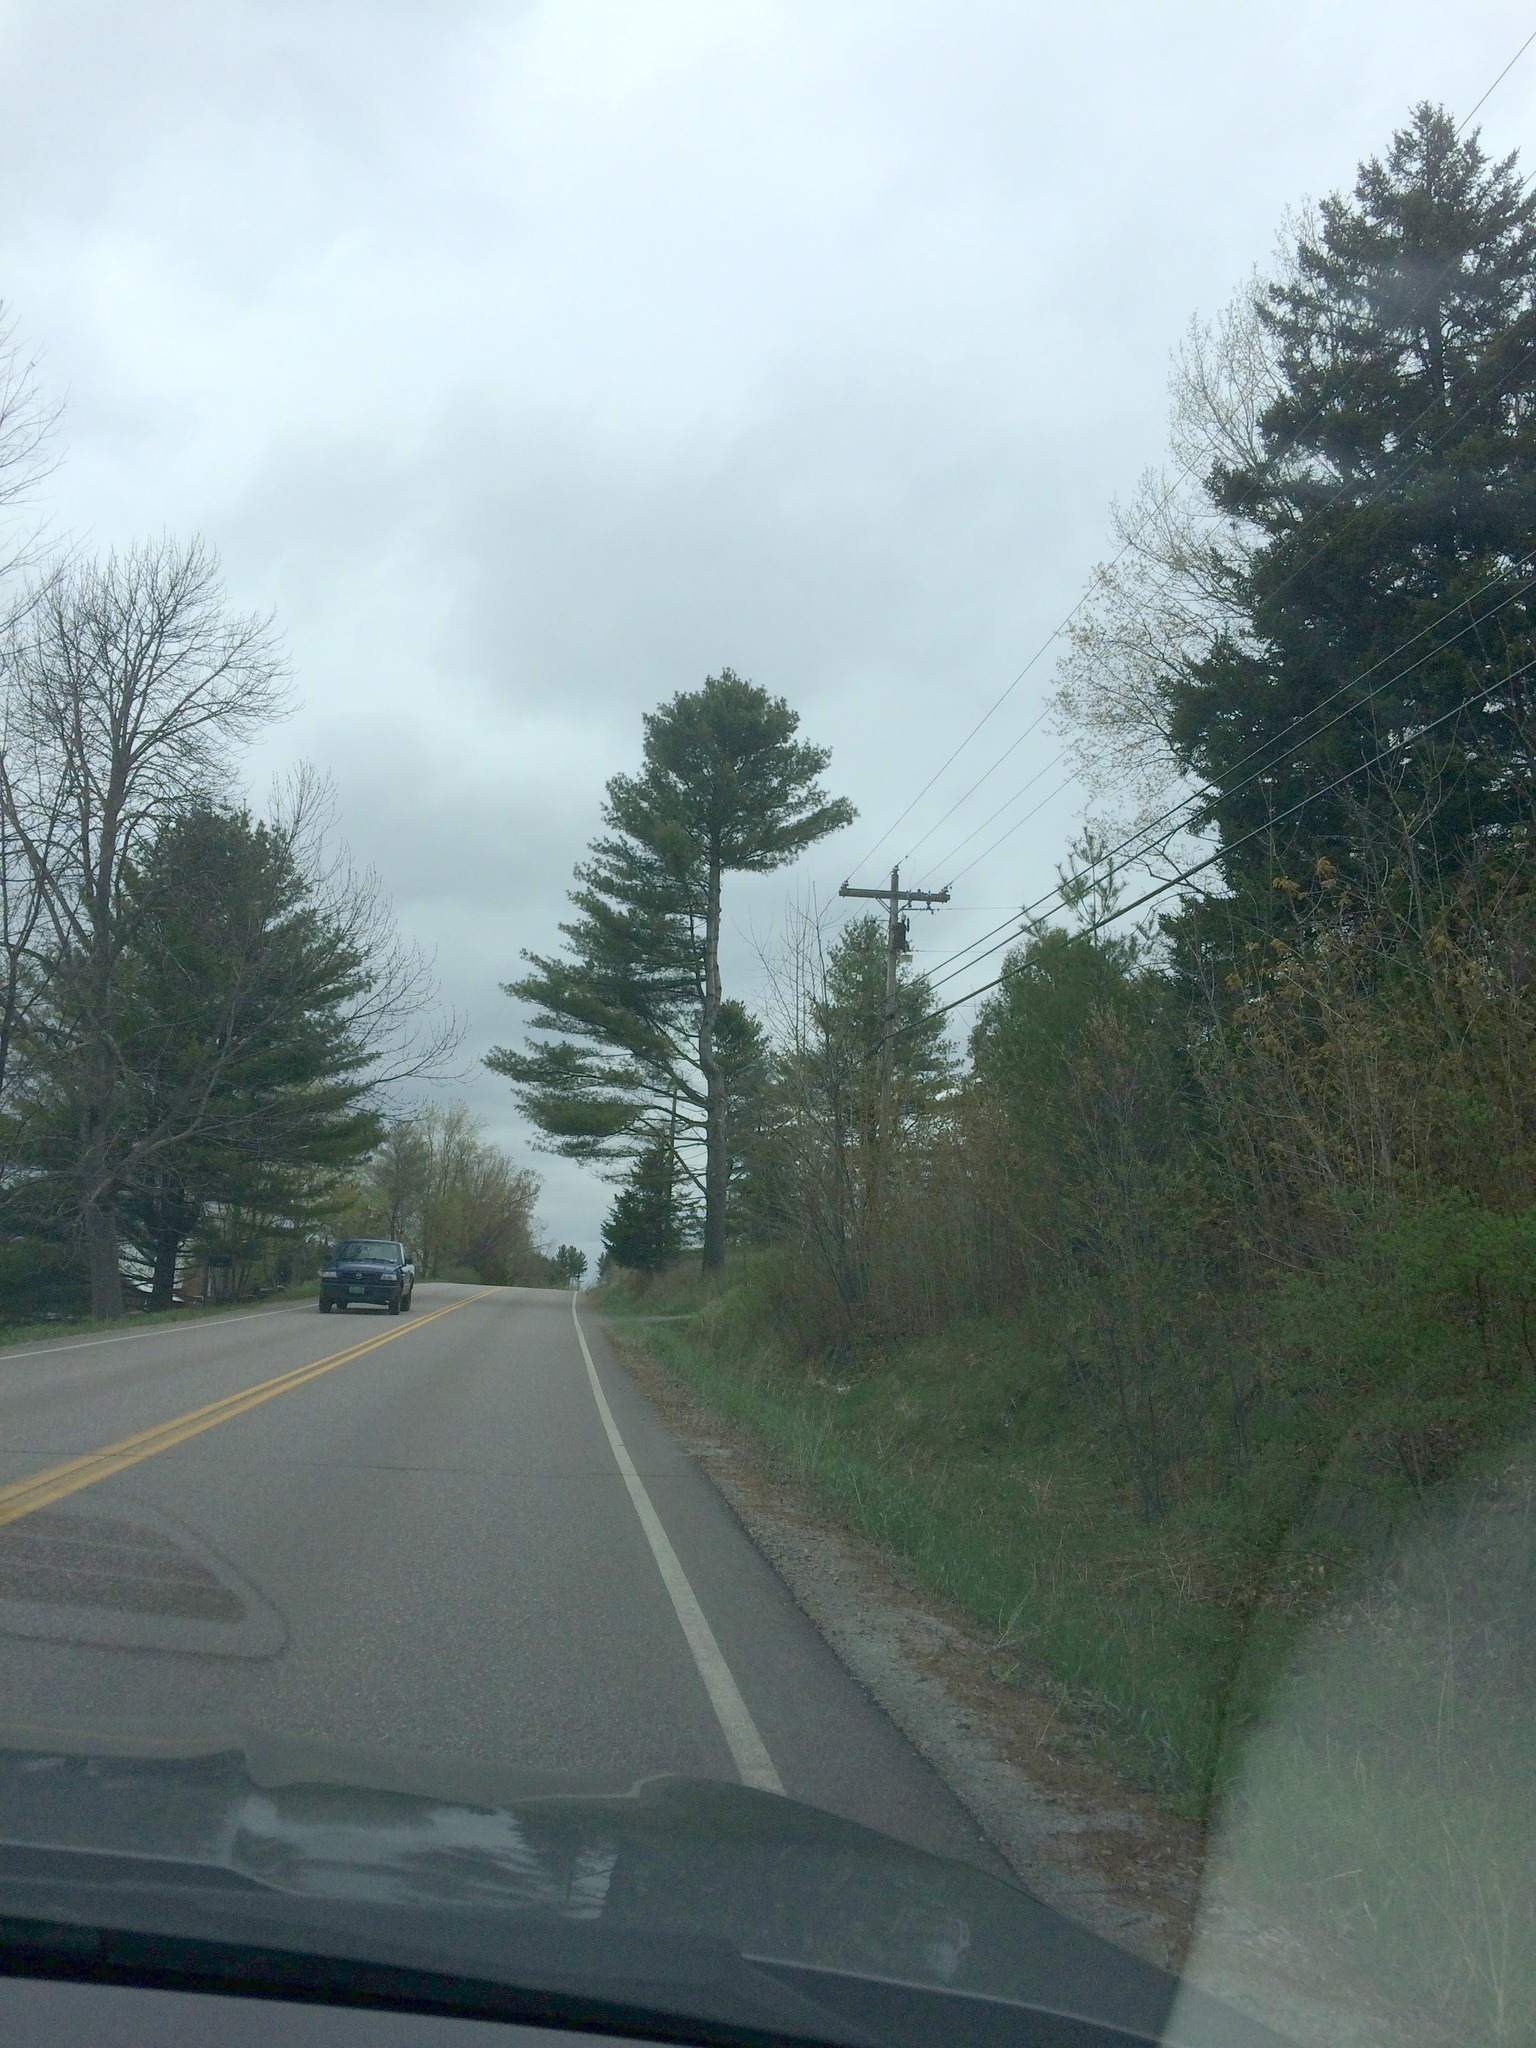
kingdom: Plantae
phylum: Tracheophyta
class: Pinopsida
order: Pinales
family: Pinaceae
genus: Pinus
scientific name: Pinus strobus
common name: Weymouth pine
